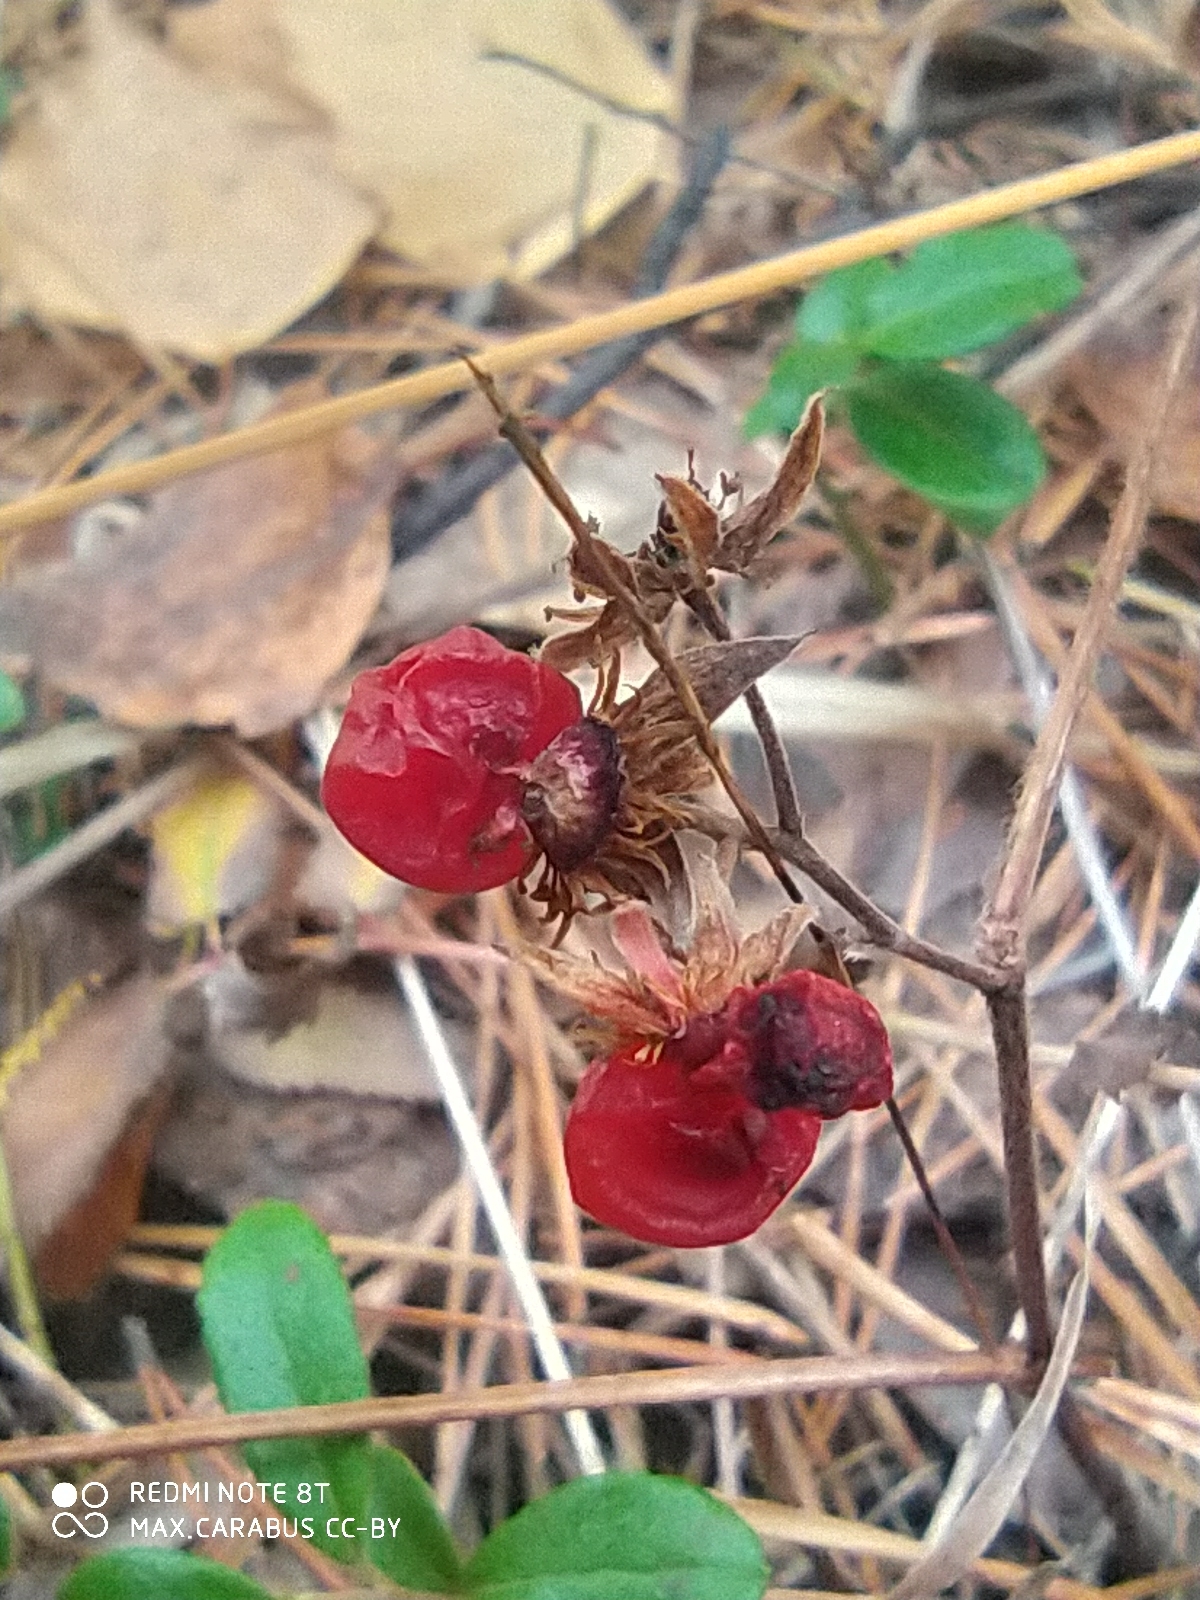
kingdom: Plantae
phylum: Tracheophyta
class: Magnoliopsida
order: Rosales
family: Rosaceae
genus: Rubus
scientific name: Rubus saxatilis
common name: Stone bramble
